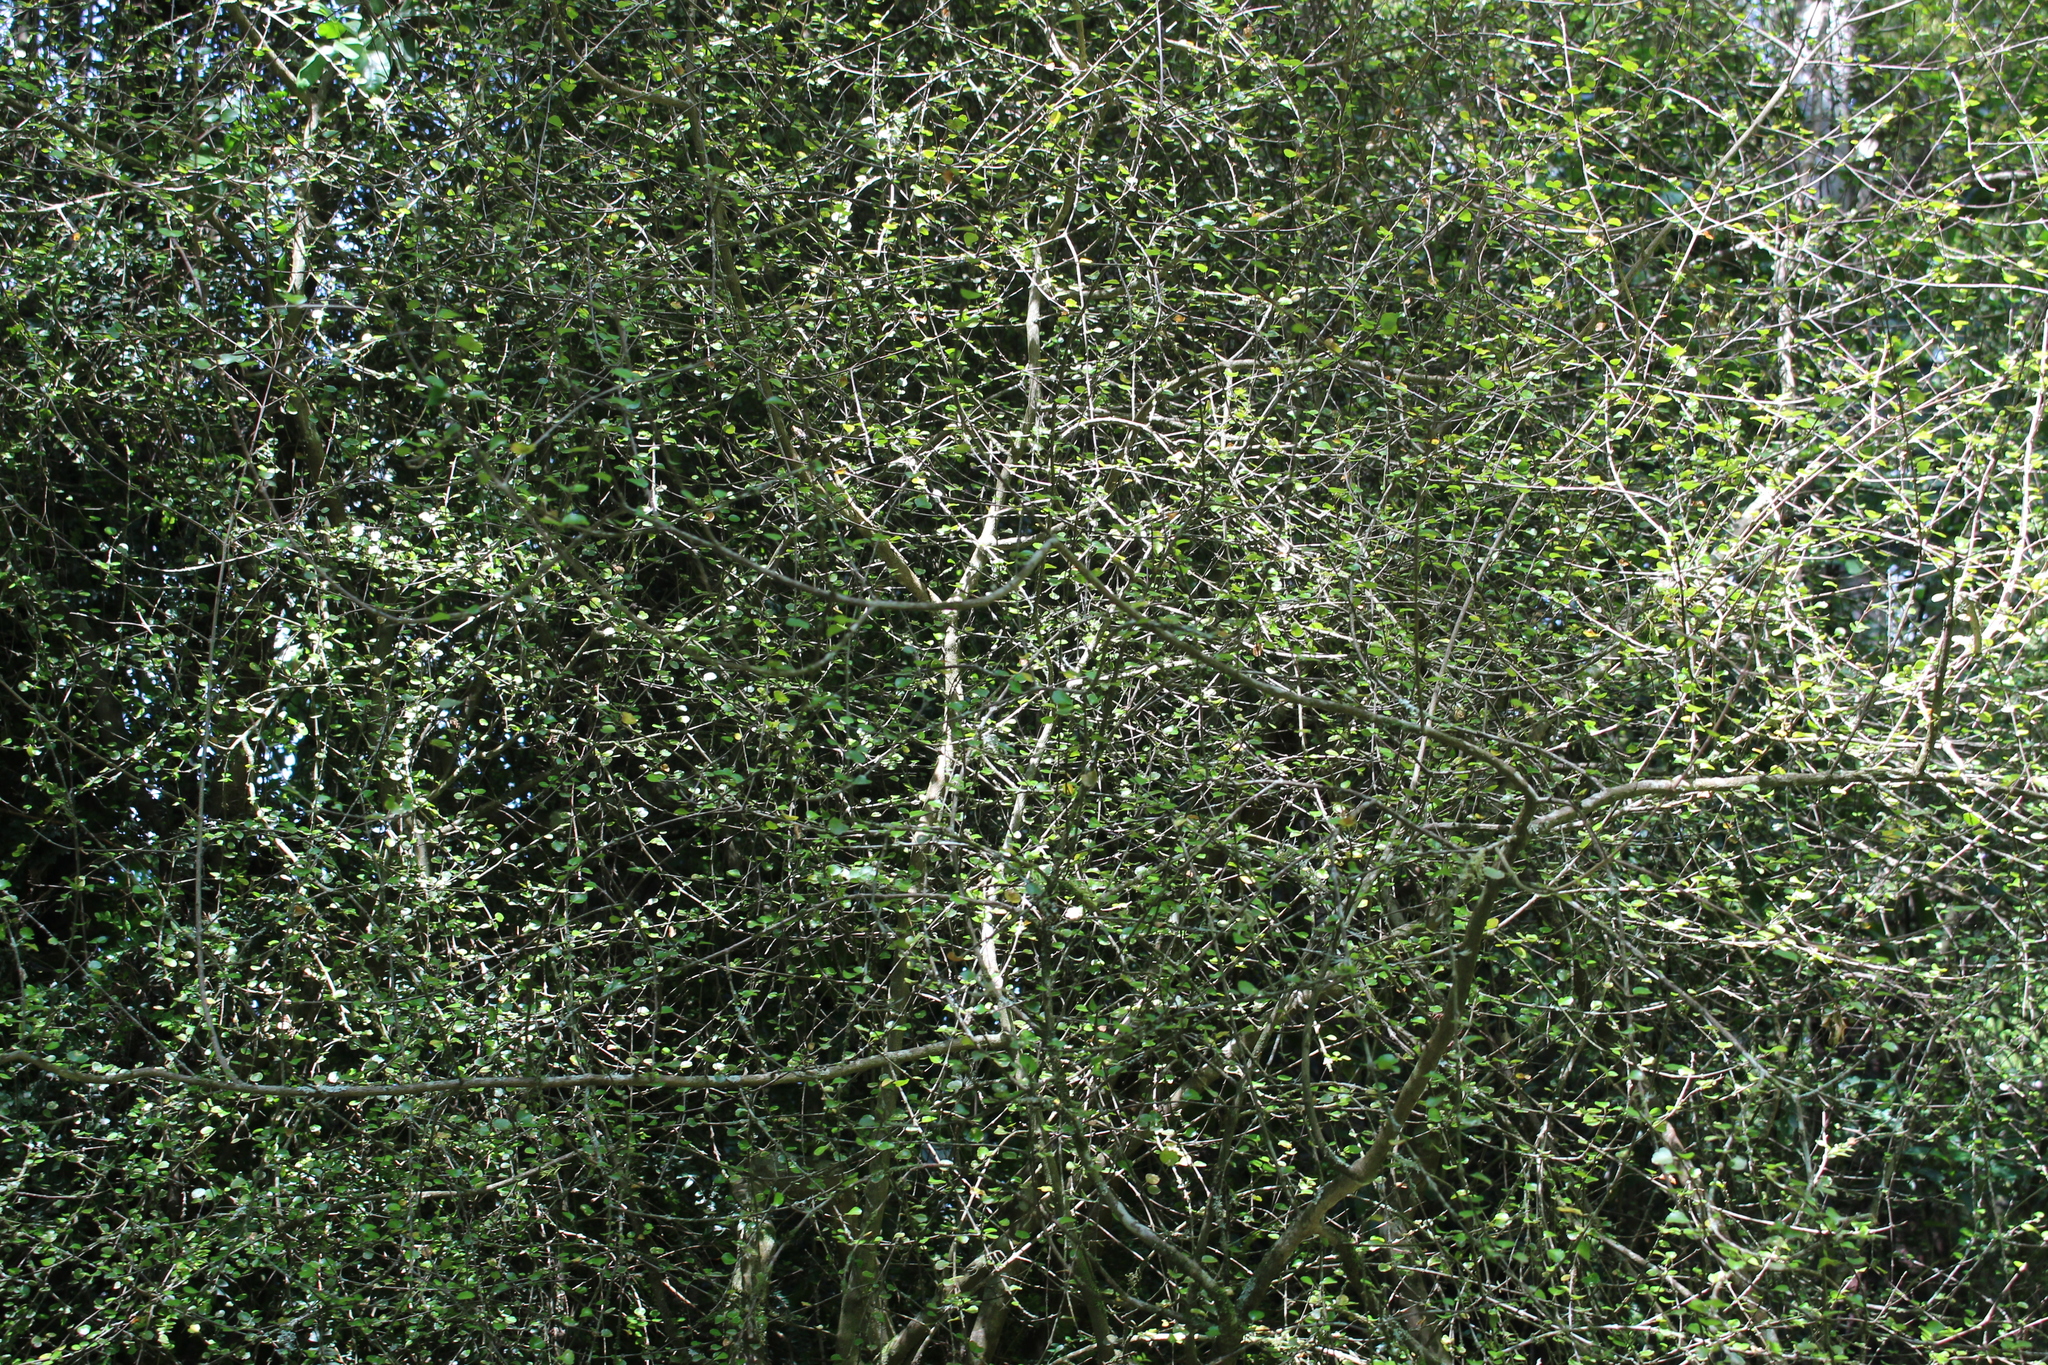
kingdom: Plantae
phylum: Tracheophyta
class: Magnoliopsida
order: Sapindales
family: Rutaceae
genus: Melicope
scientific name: Melicope simplex
